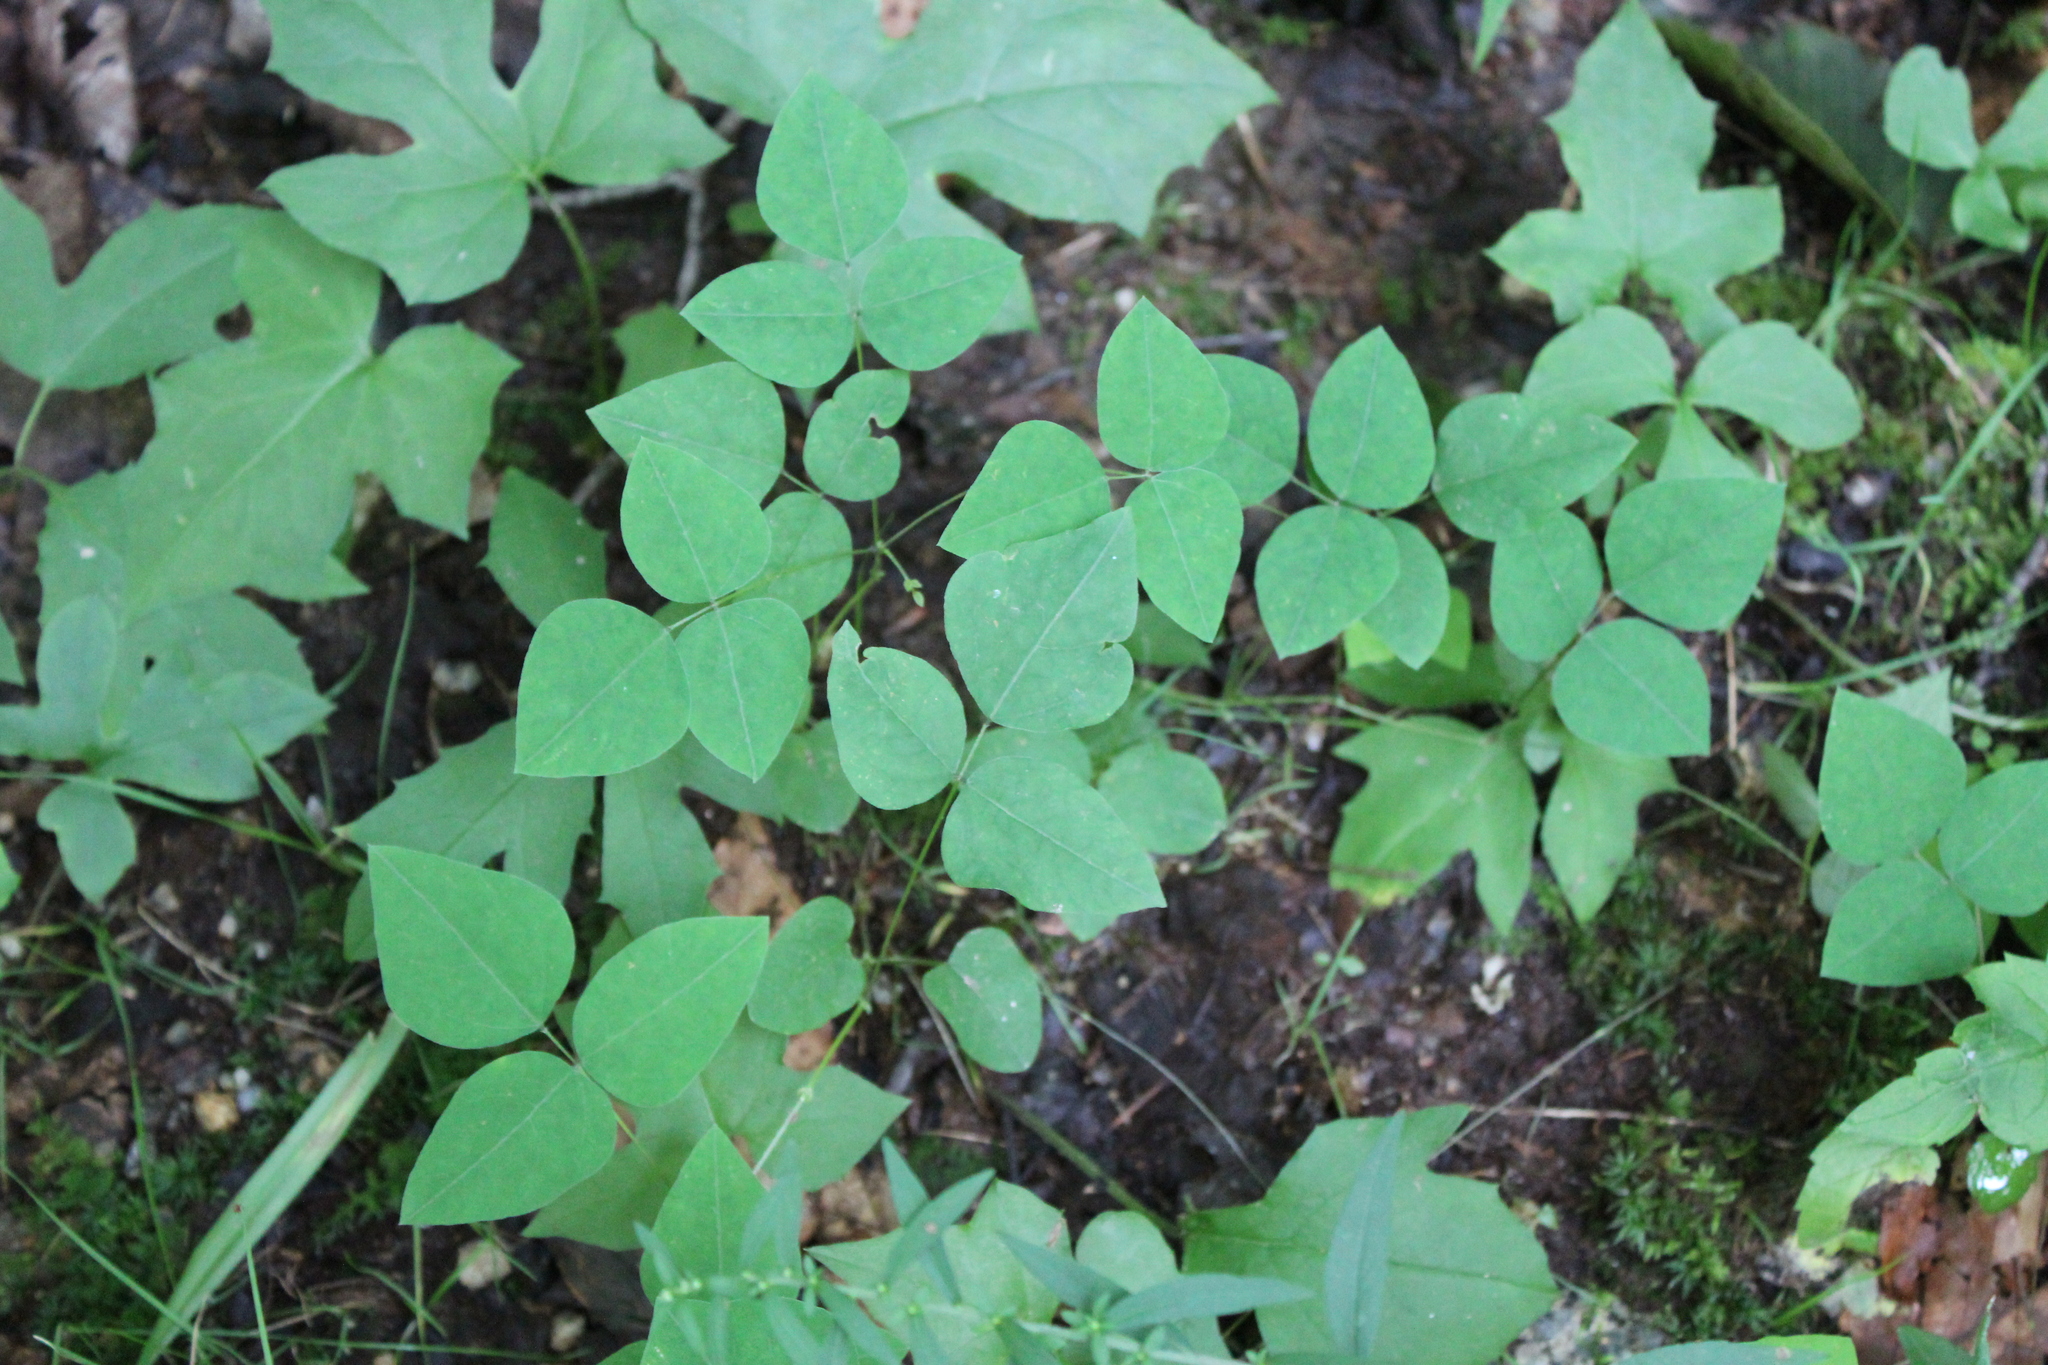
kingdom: Plantae
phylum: Tracheophyta
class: Magnoliopsida
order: Fabales
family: Fabaceae
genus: Amphicarpaea
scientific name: Amphicarpaea bracteata
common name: American hog peanut
